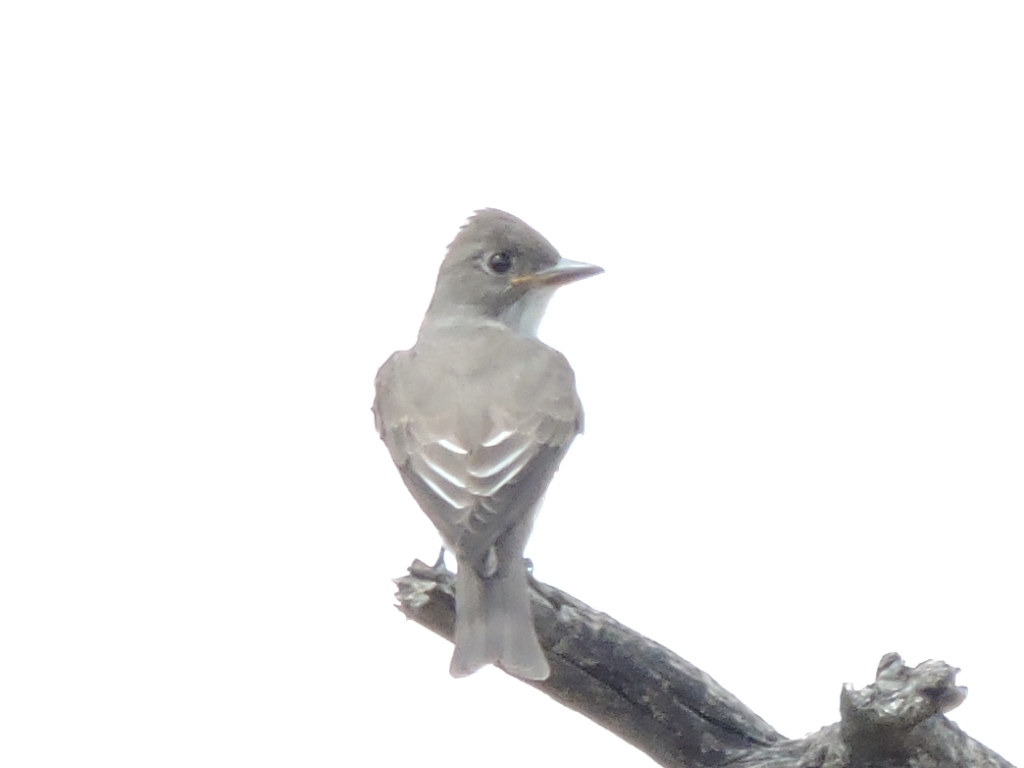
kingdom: Animalia
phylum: Chordata
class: Aves
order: Passeriformes
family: Tyrannidae
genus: Contopus
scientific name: Contopus cooperi
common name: Olive-sided flycatcher
